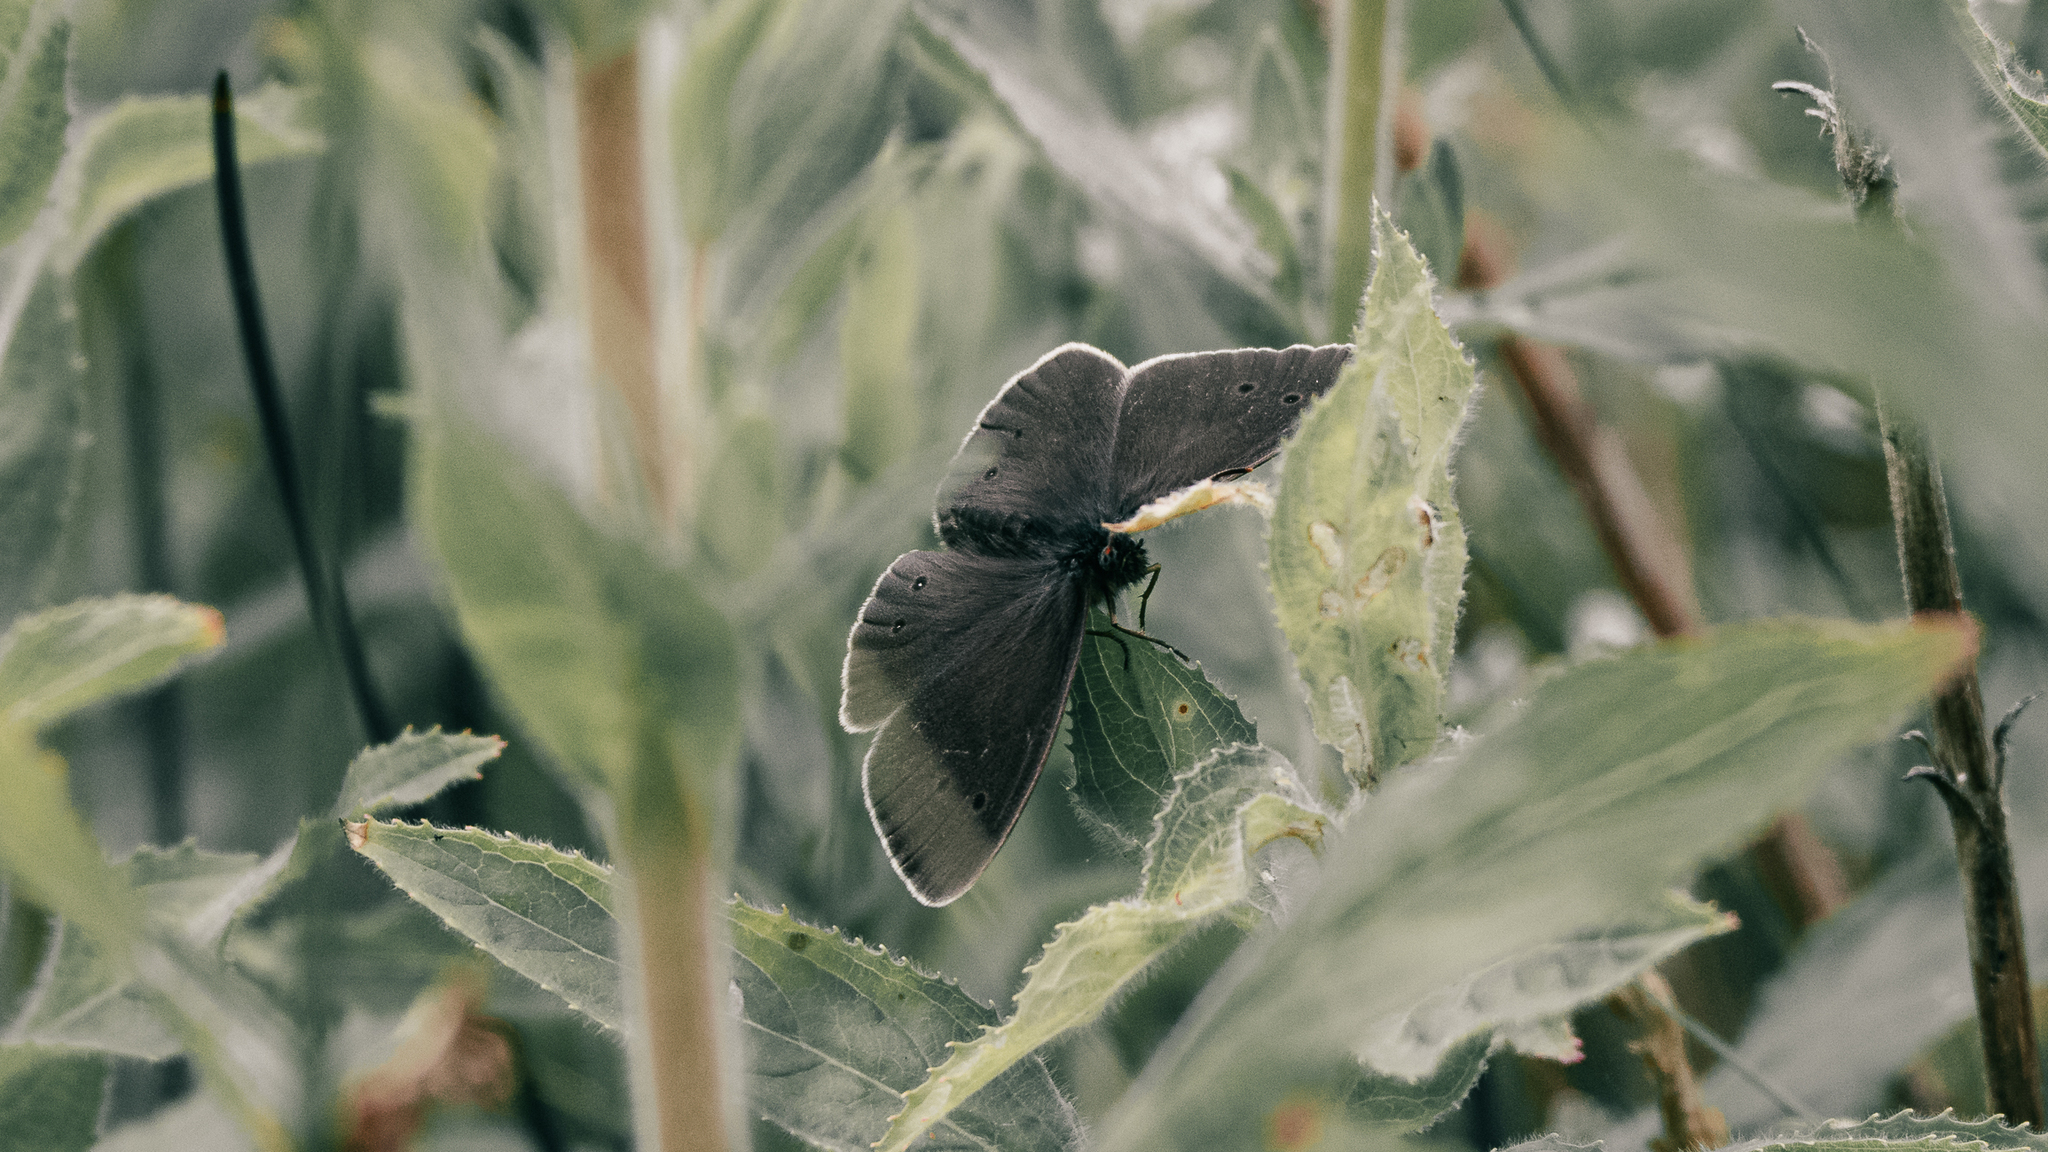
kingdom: Animalia
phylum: Arthropoda
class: Insecta
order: Lepidoptera
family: Nymphalidae
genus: Aphantopus
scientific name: Aphantopus hyperantus
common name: Ringlet
